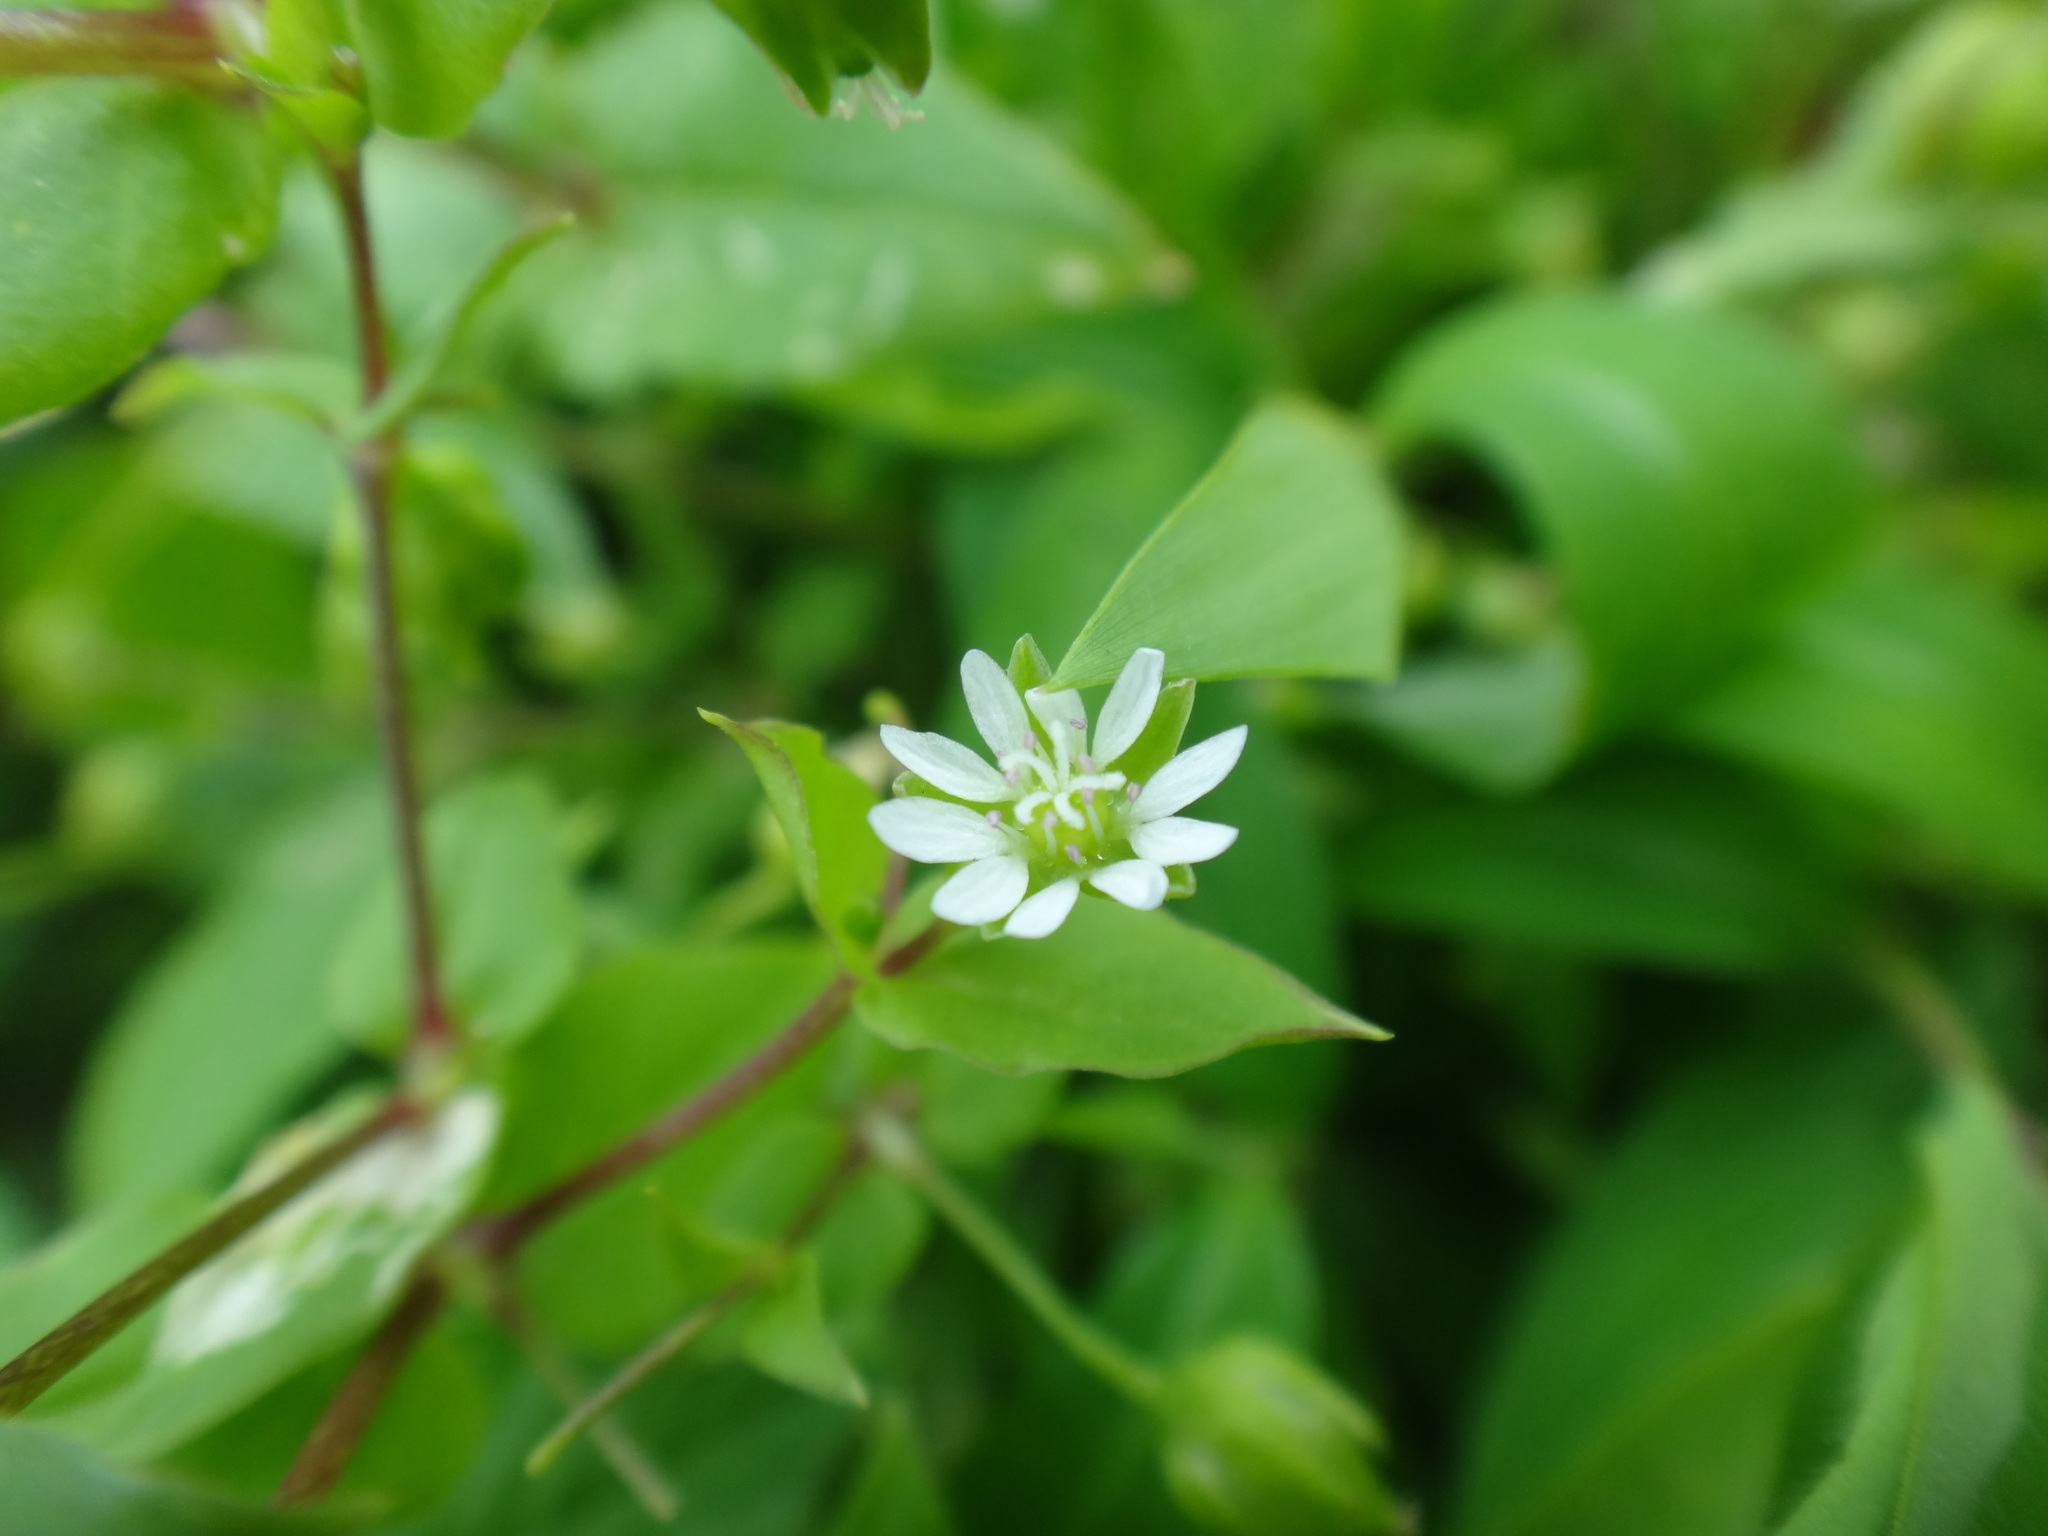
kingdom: Plantae
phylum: Tracheophyta
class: Magnoliopsida
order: Caryophyllales
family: Caryophyllaceae
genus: Stellaria
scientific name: Stellaria aquatica
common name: Water chickweed
